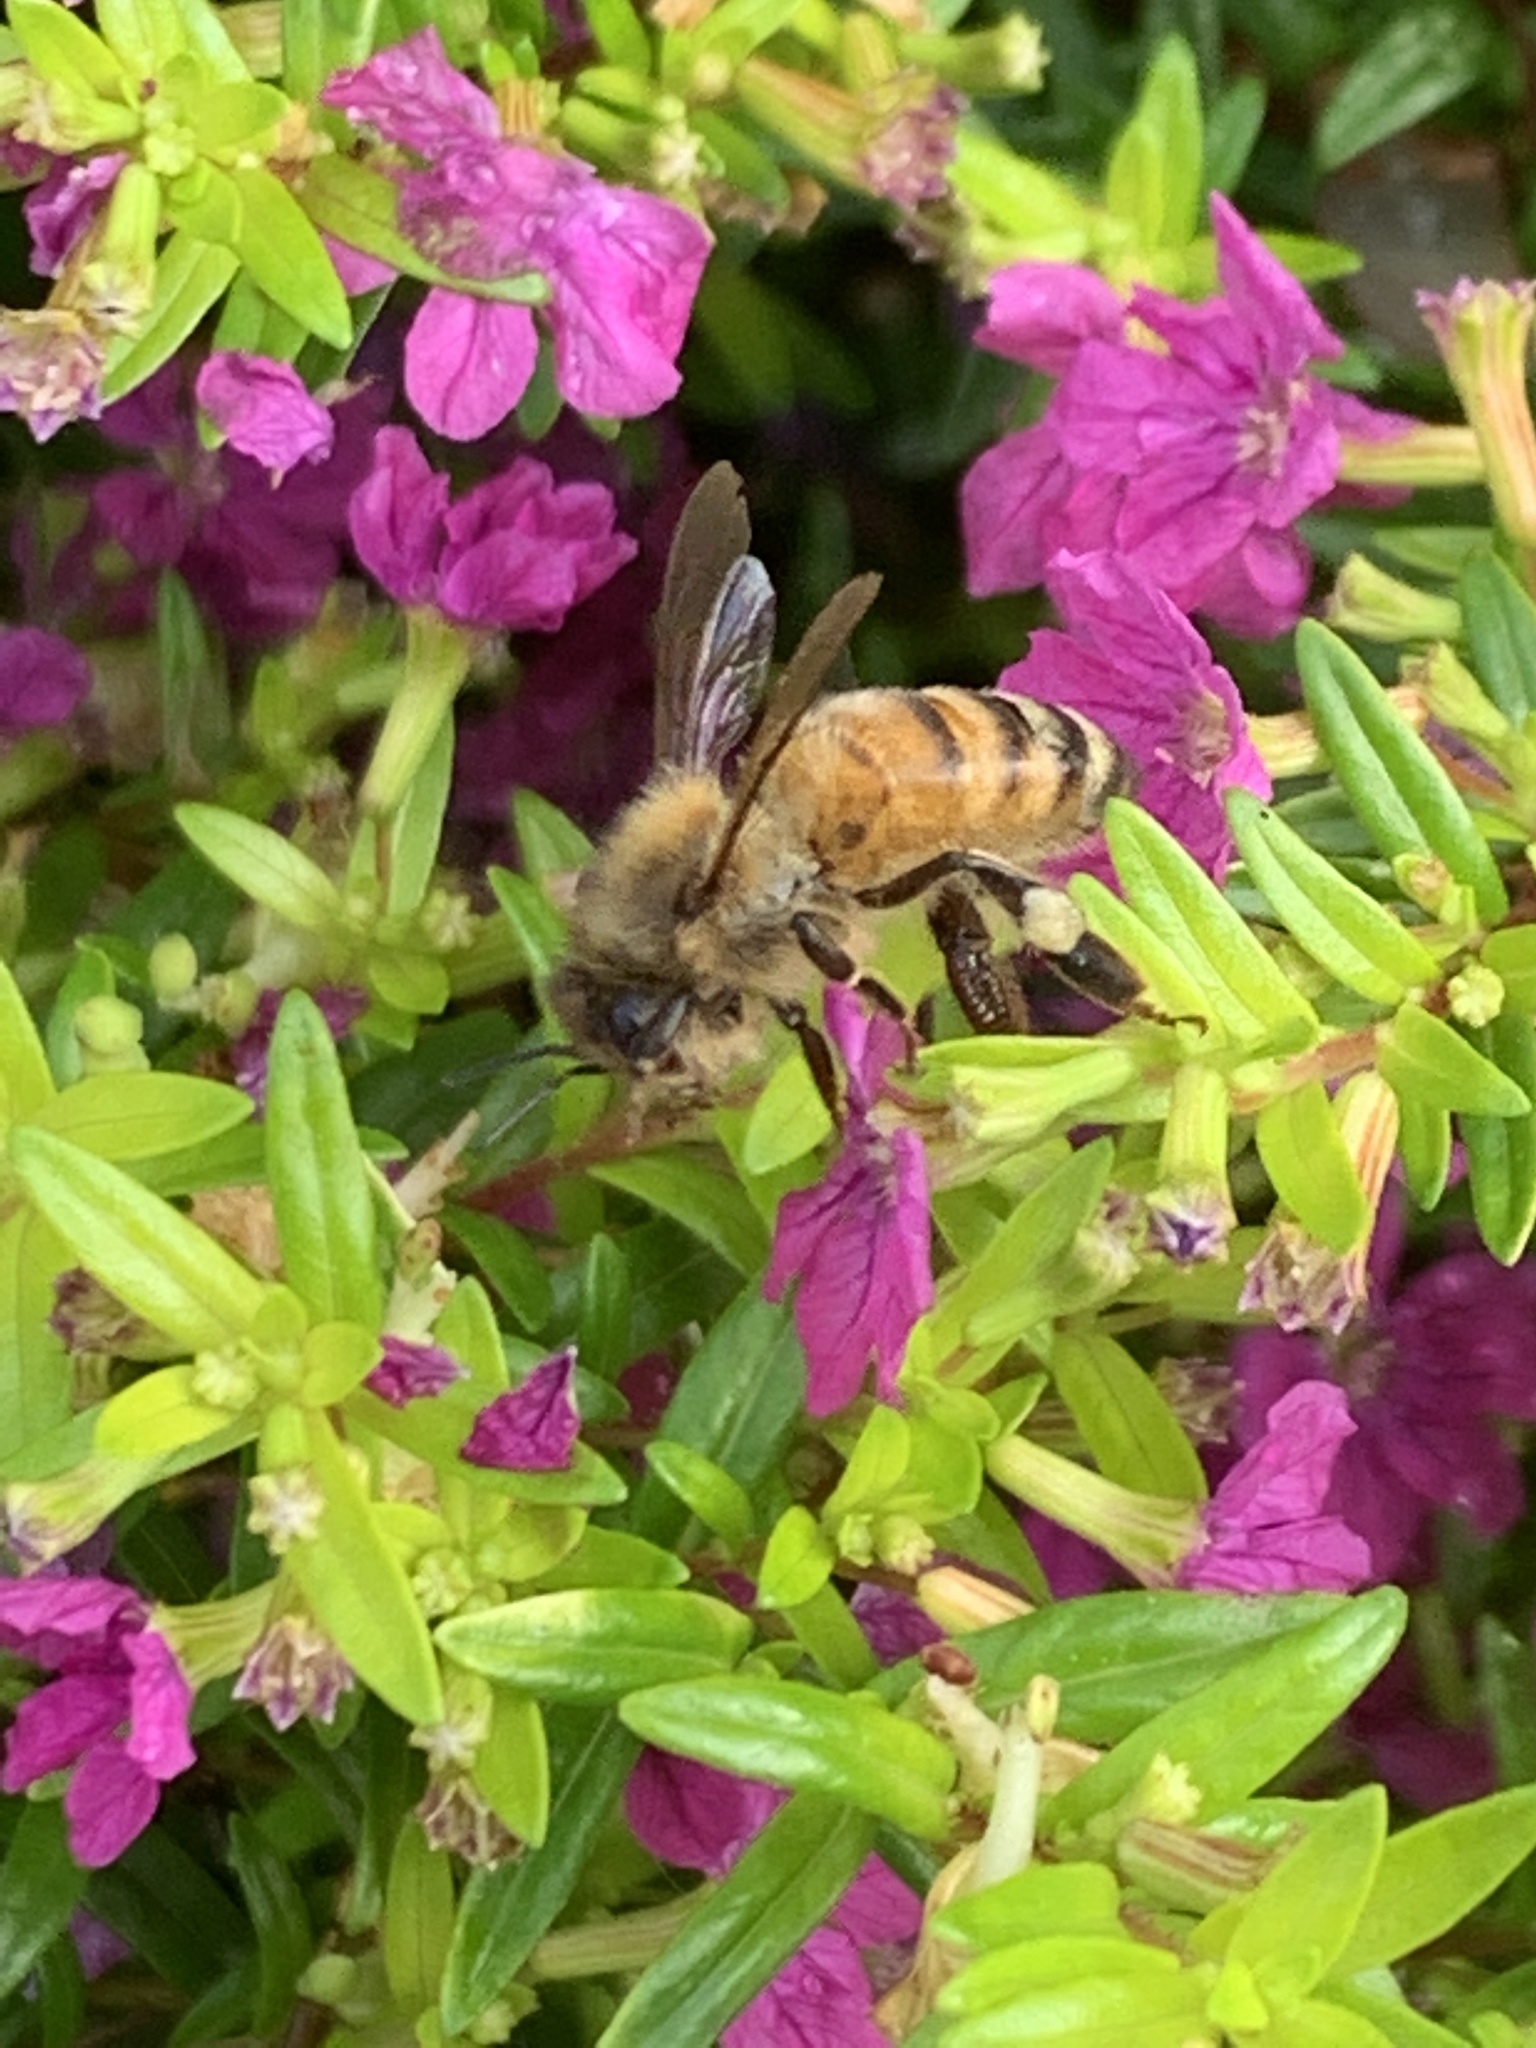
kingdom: Animalia
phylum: Arthropoda
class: Insecta
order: Hymenoptera
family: Apidae
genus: Apis
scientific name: Apis mellifera
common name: Honey bee
